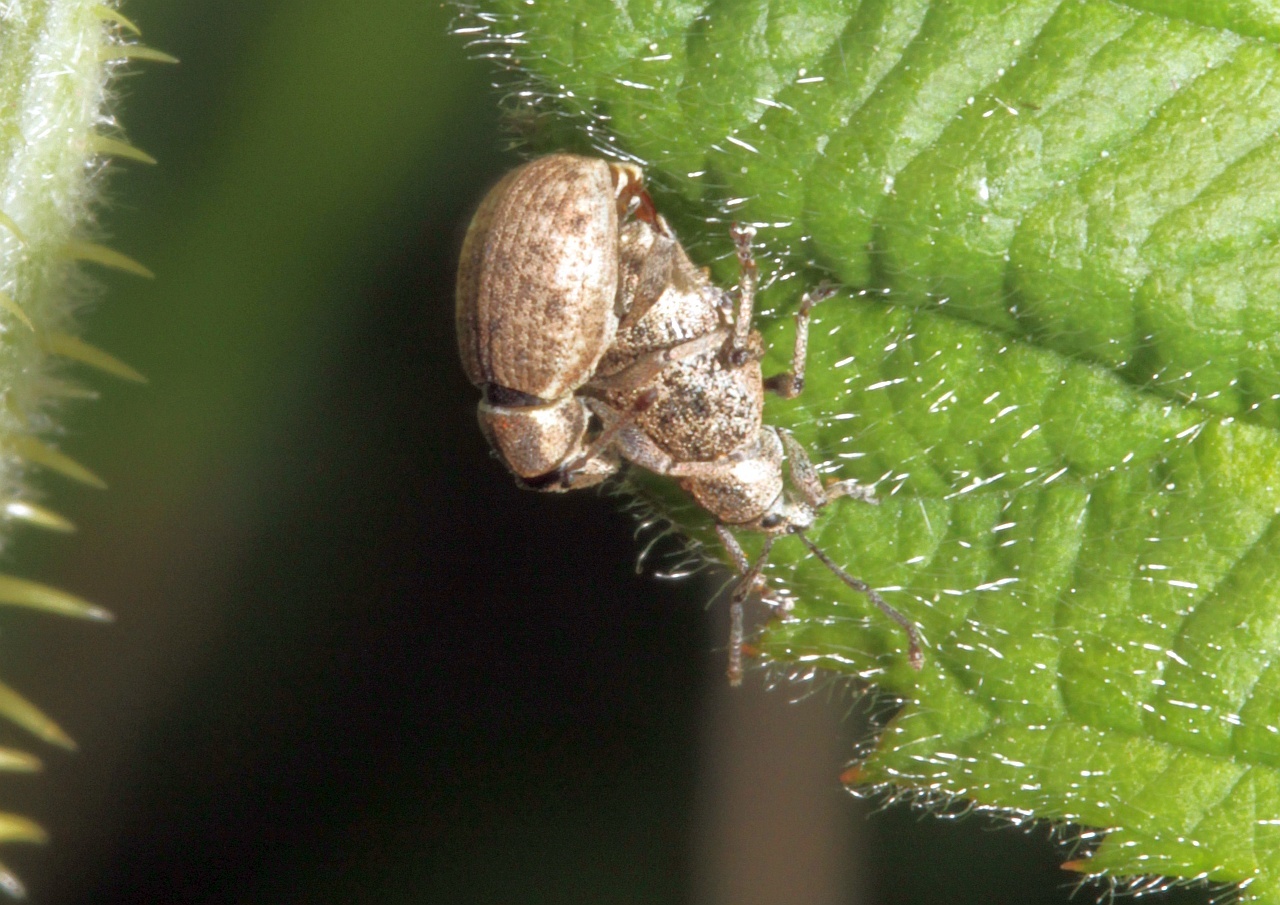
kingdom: Animalia
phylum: Arthropoda
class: Insecta
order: Coleoptera
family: Curculionidae
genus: Peritelus
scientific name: Peritelus sphaeroides
